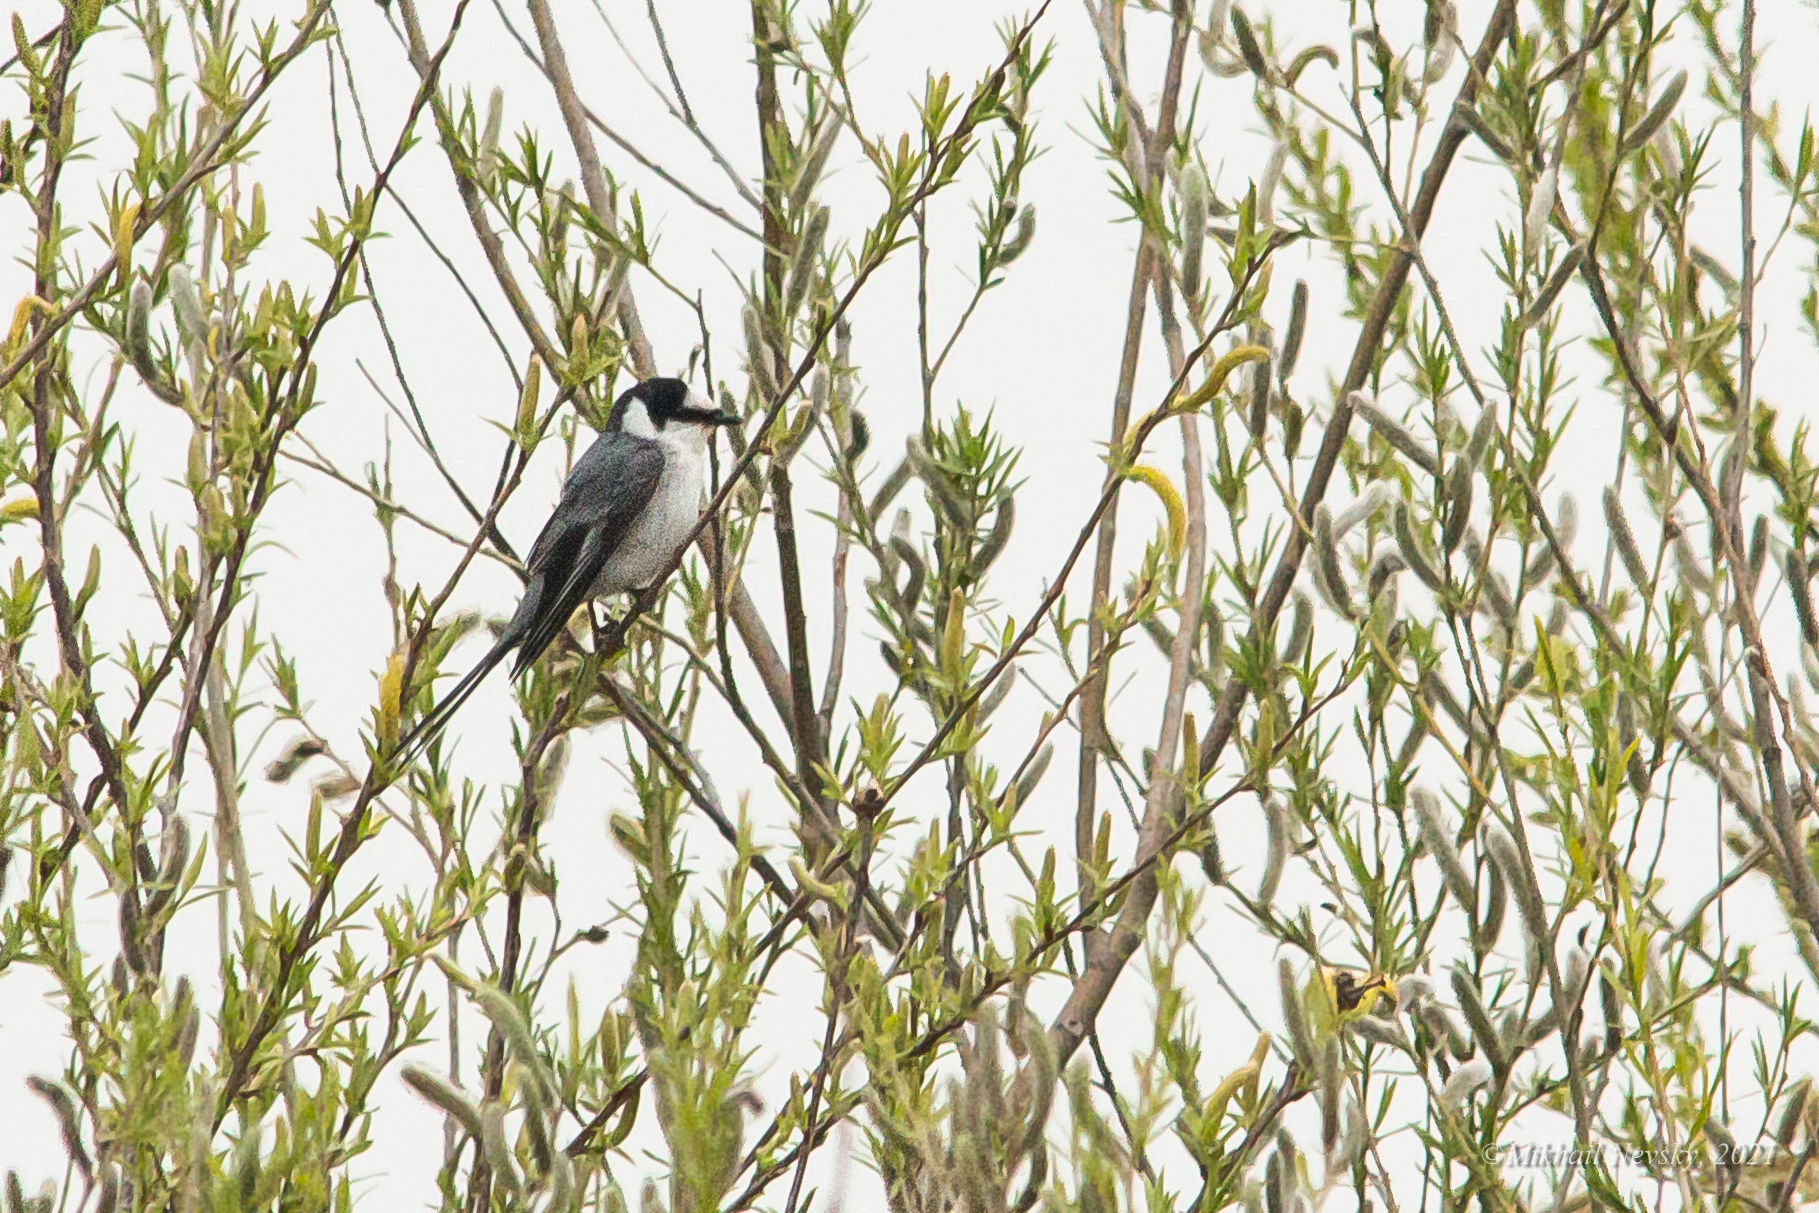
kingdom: Animalia
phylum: Chordata
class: Aves
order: Passeriformes
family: Campephagidae
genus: Pericrocotus
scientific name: Pericrocotus divaricatus
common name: Ashy minivet
